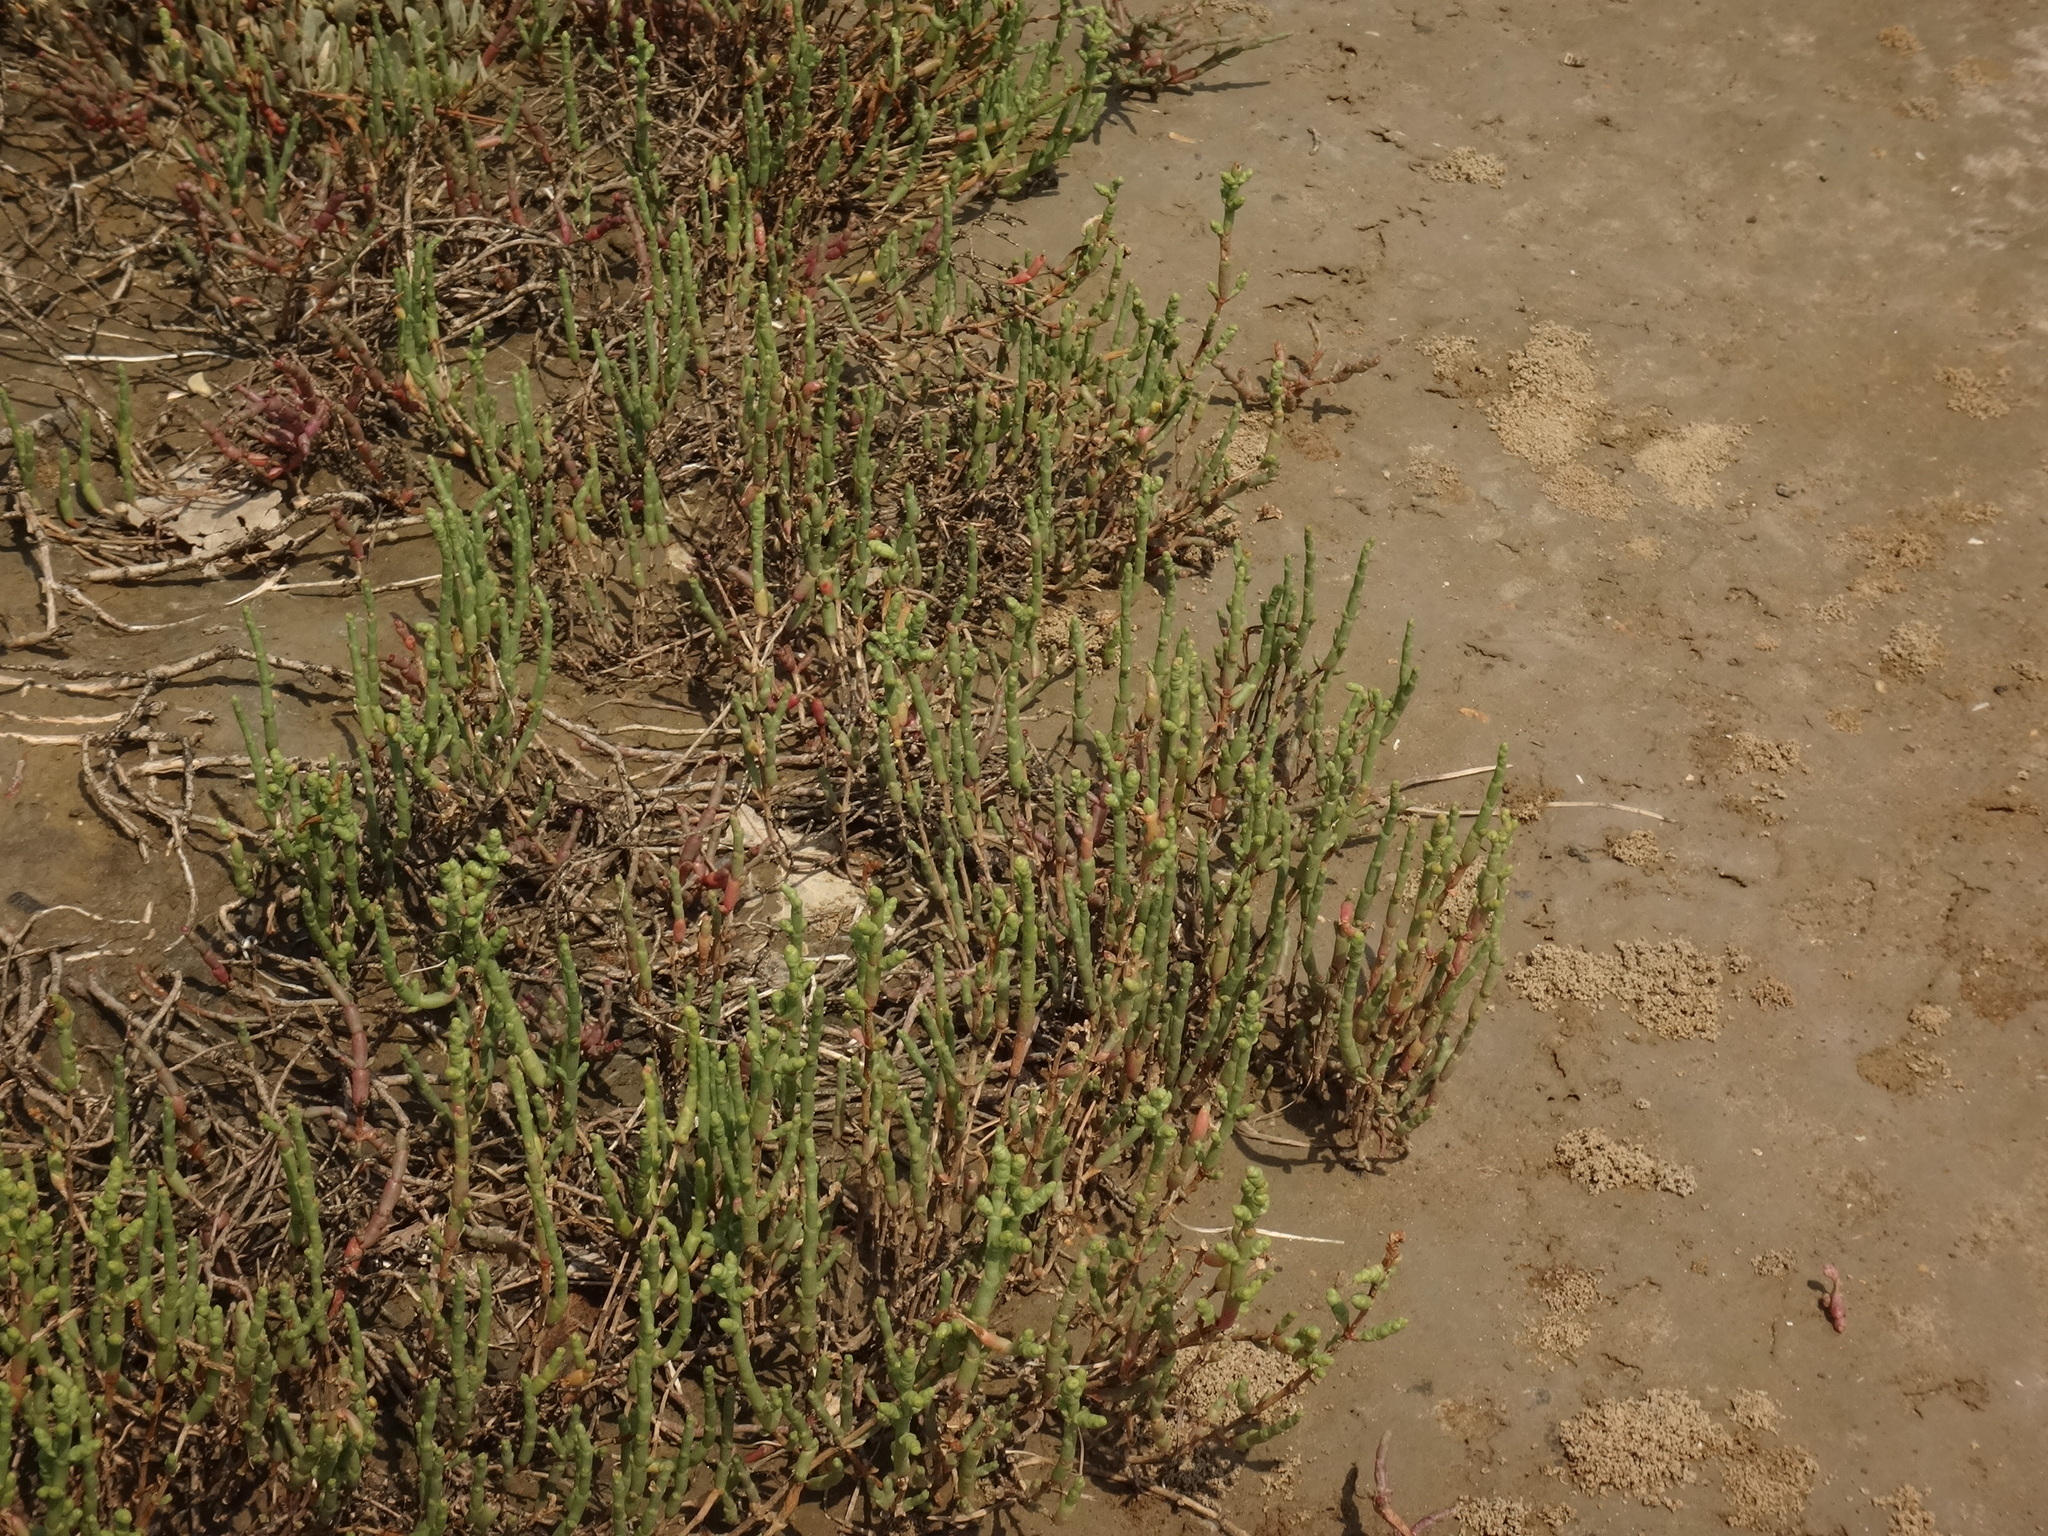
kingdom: Plantae
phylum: Tracheophyta
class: Magnoliopsida
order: Caryophyllales
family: Amaranthaceae
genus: Salicornia
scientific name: Salicornia perennans
